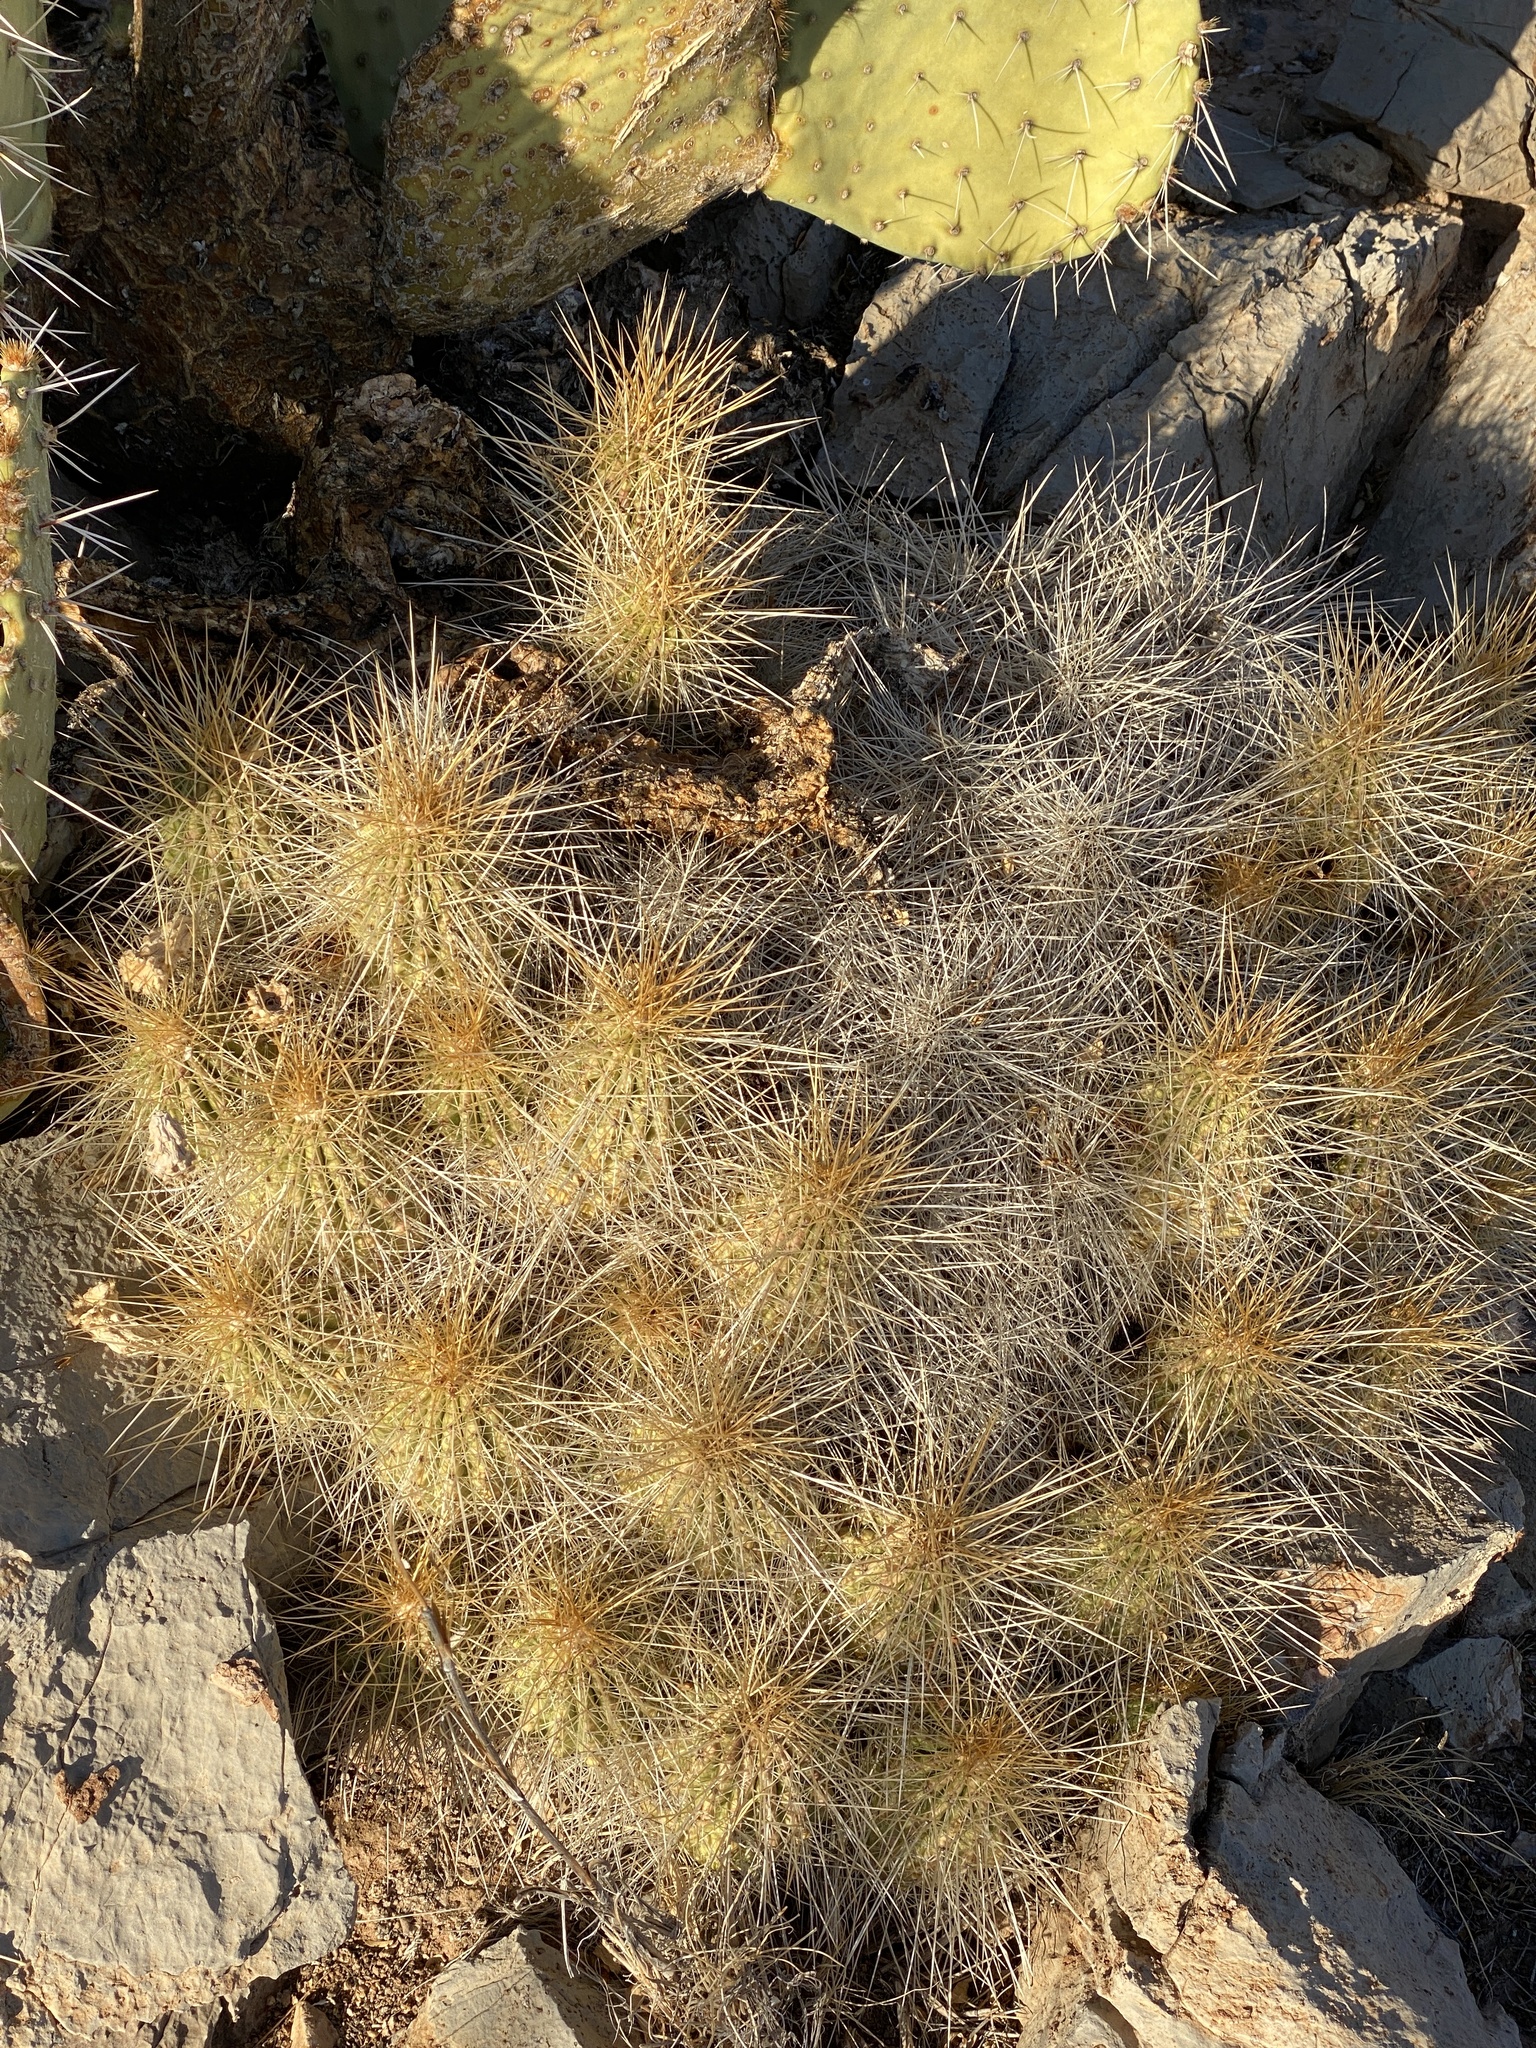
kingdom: Plantae
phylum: Tracheophyta
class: Magnoliopsida
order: Caryophyllales
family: Cactaceae
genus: Echinocereus
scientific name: Echinocereus stramineus
